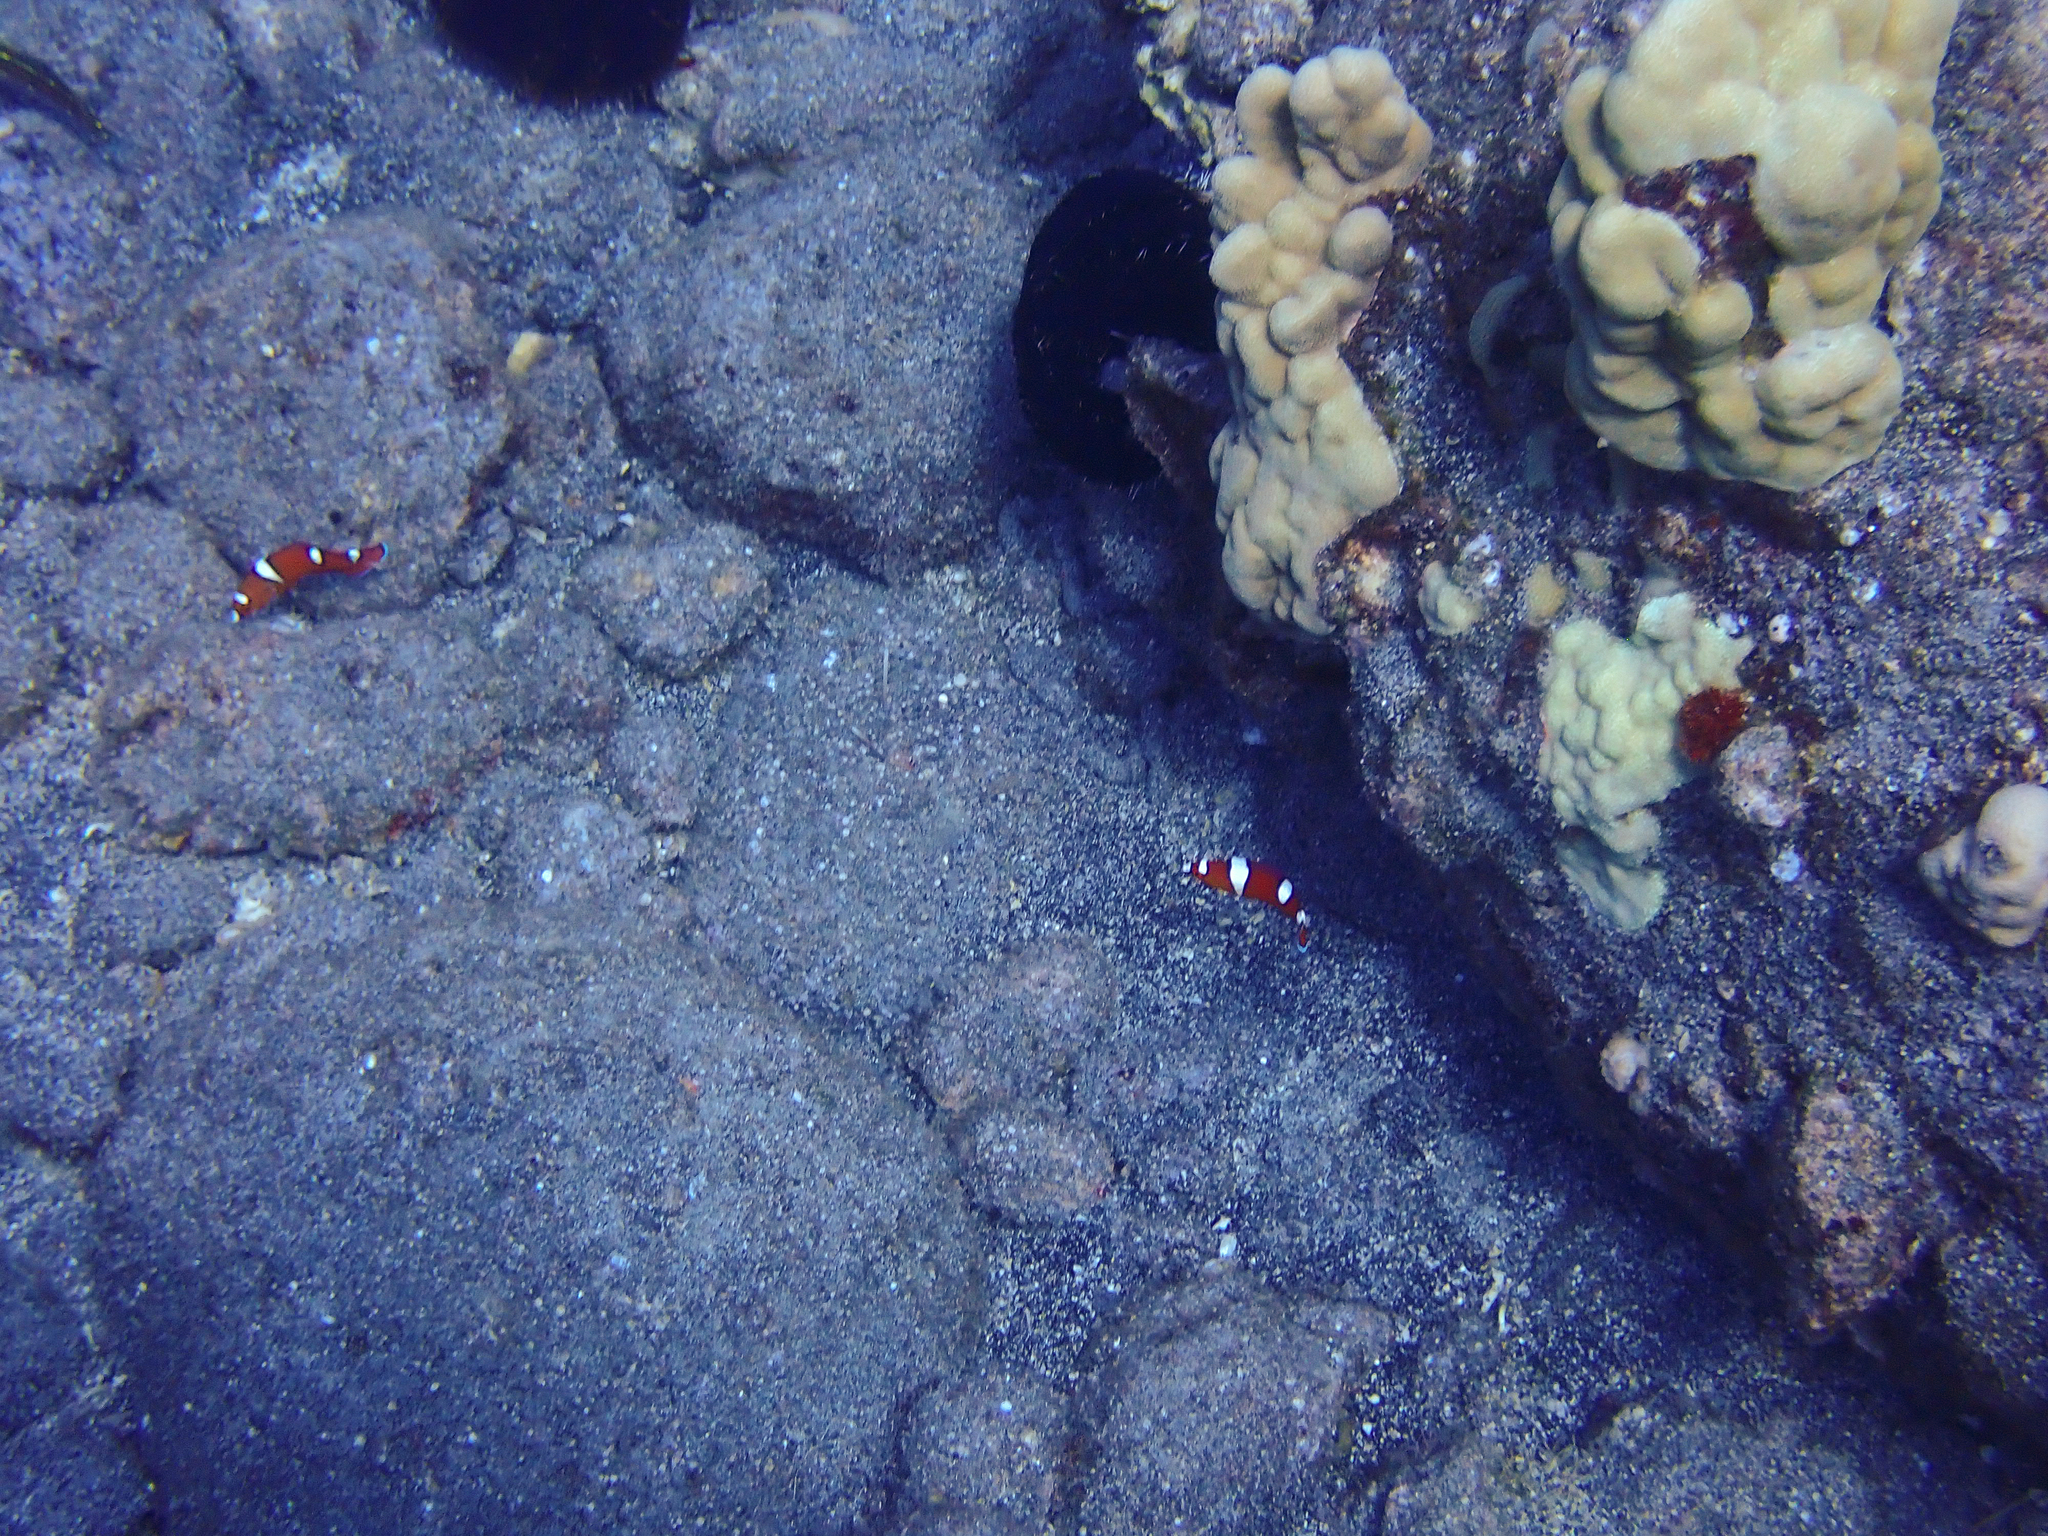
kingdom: Animalia
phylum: Chordata
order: Perciformes
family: Labridae
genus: Coris
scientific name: Coris gaimard
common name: Yellowtail coris
